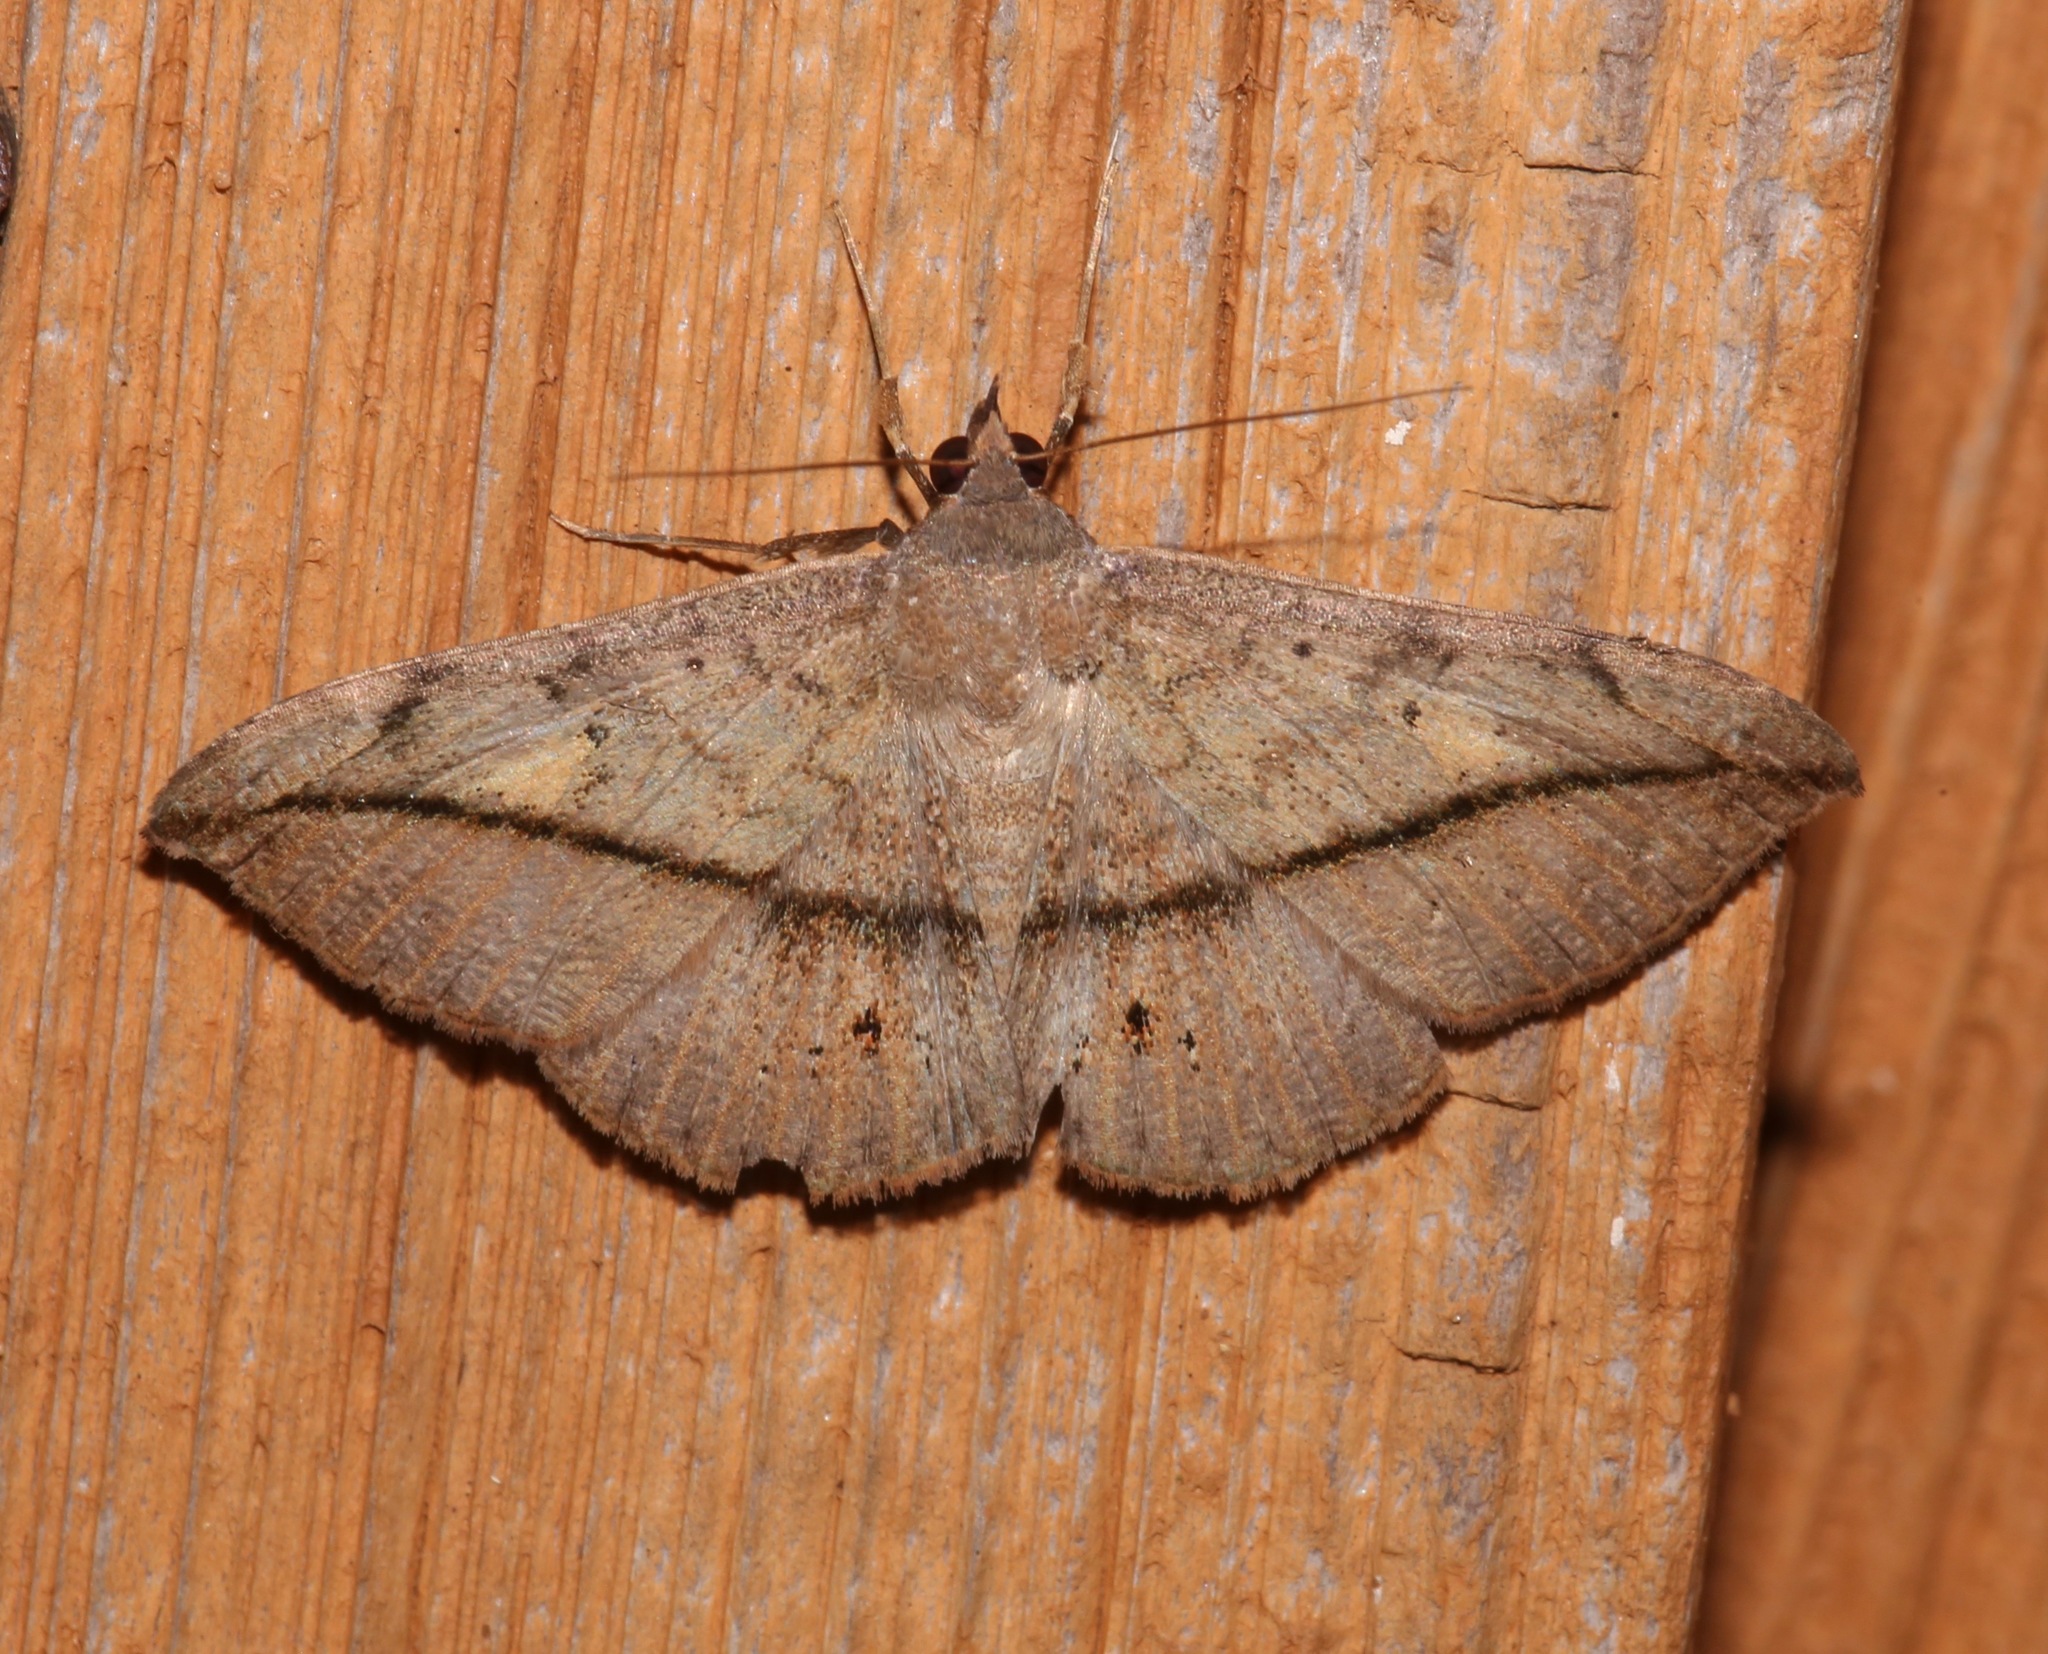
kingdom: Animalia
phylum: Arthropoda
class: Insecta
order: Lepidoptera
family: Erebidae
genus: Anticarsia
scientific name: Anticarsia gemmatalis
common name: Cutworm moth
